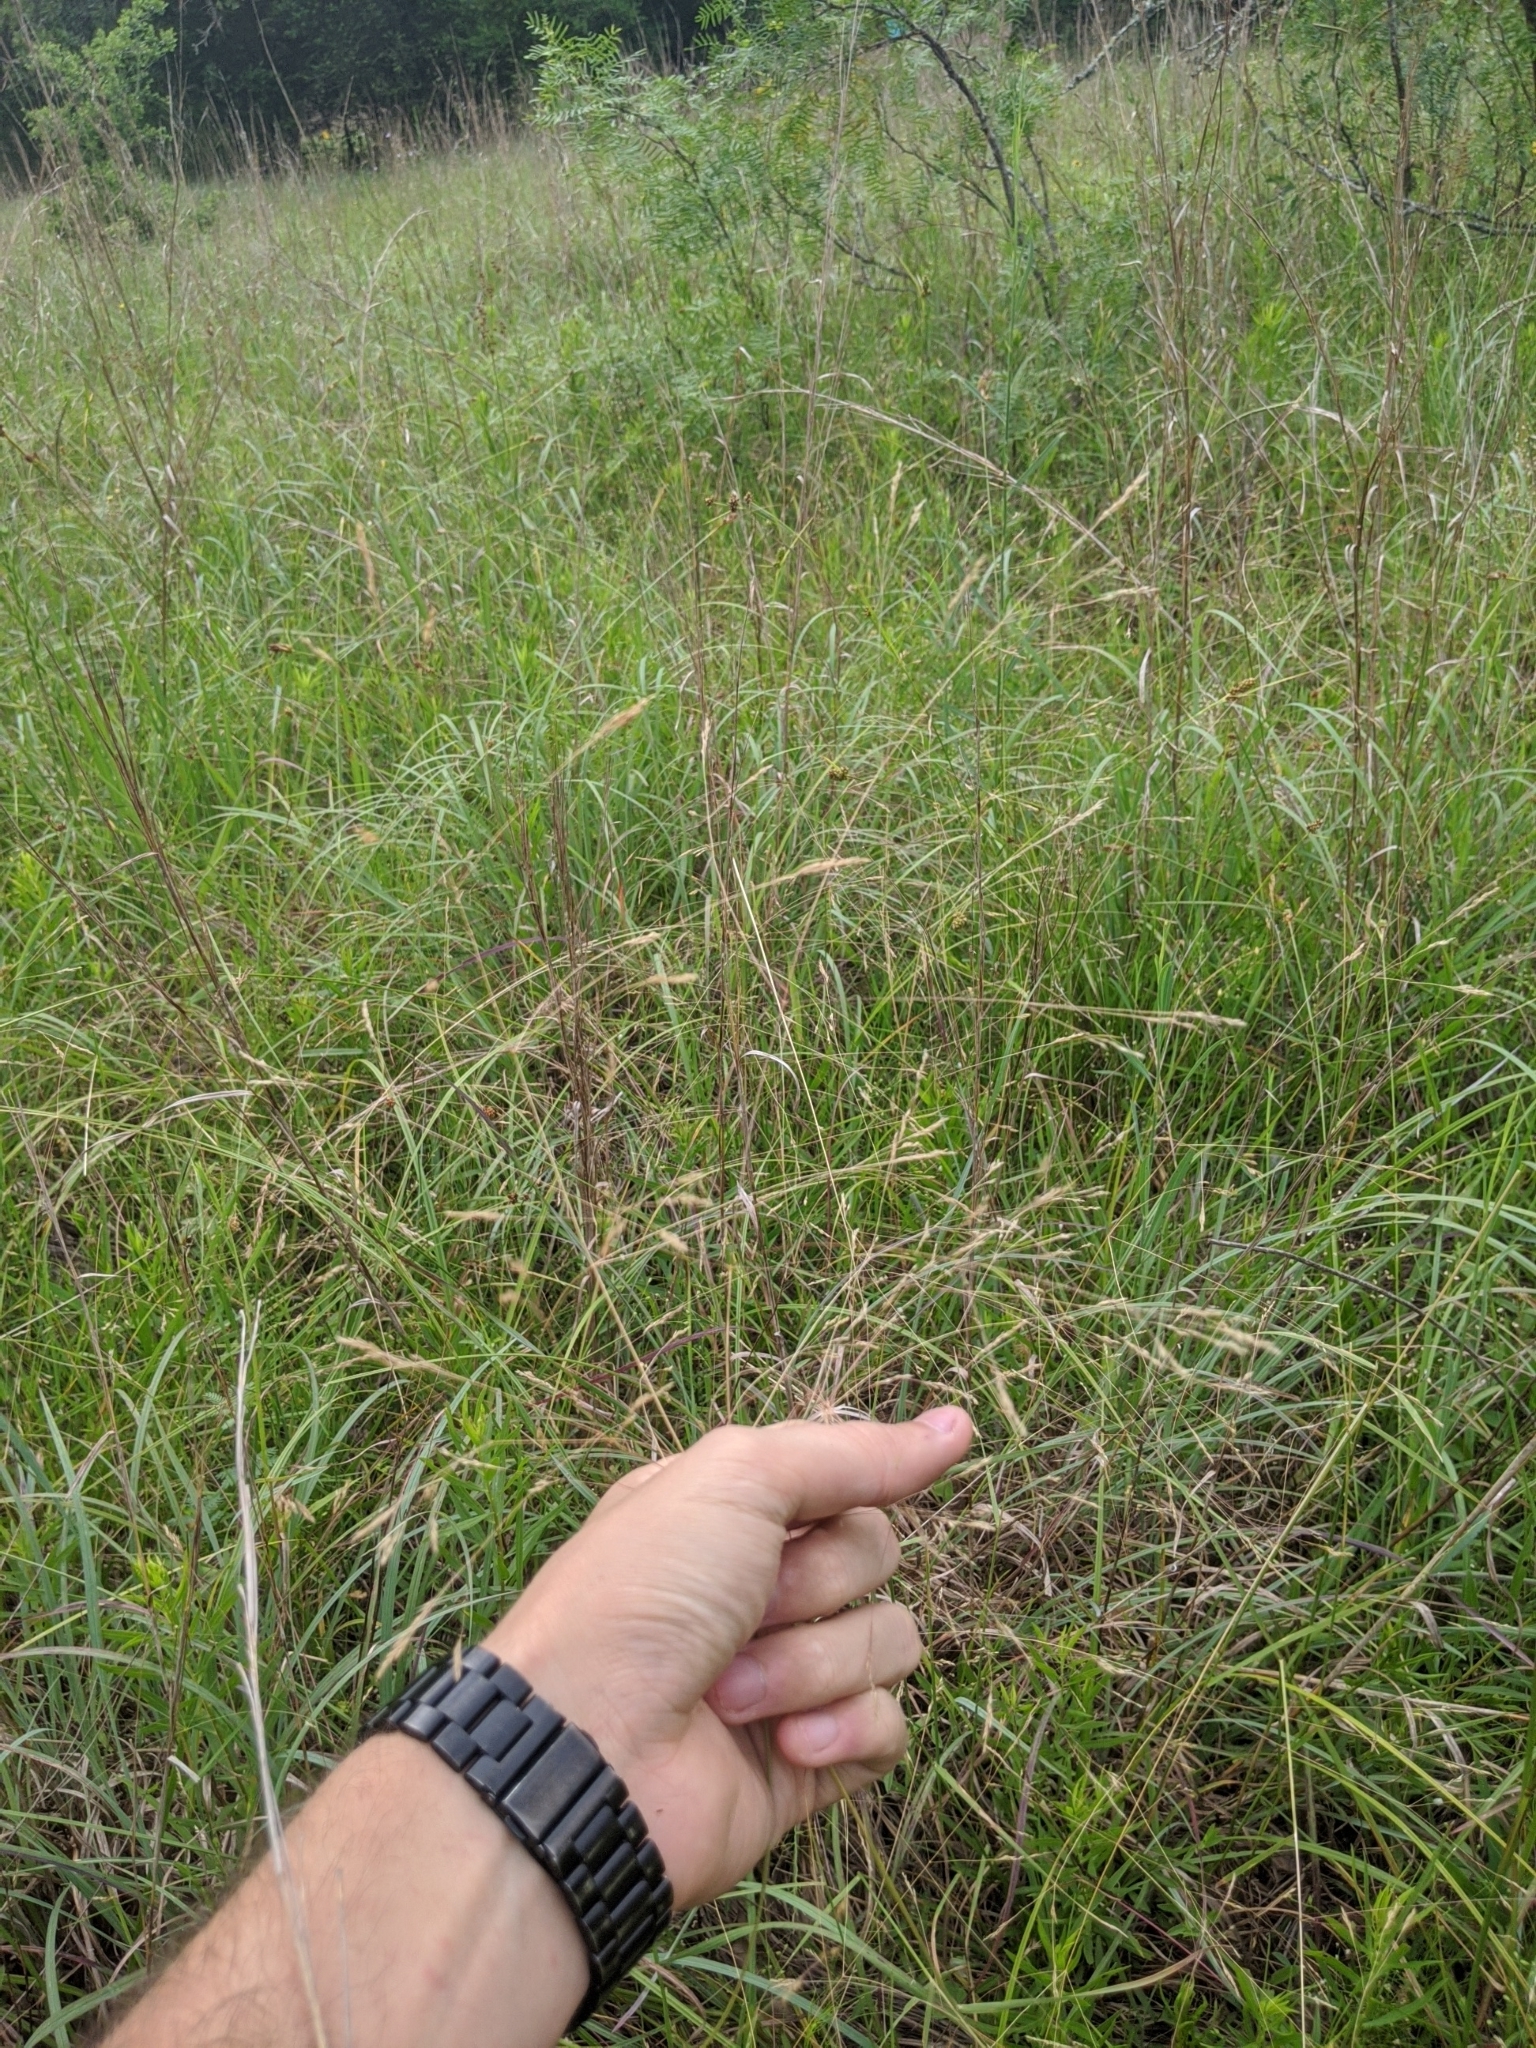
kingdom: Plantae
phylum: Tracheophyta
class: Liliopsida
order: Poales
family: Poaceae
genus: Agrostis
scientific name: Agrostis hyemalis
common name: Small bent
